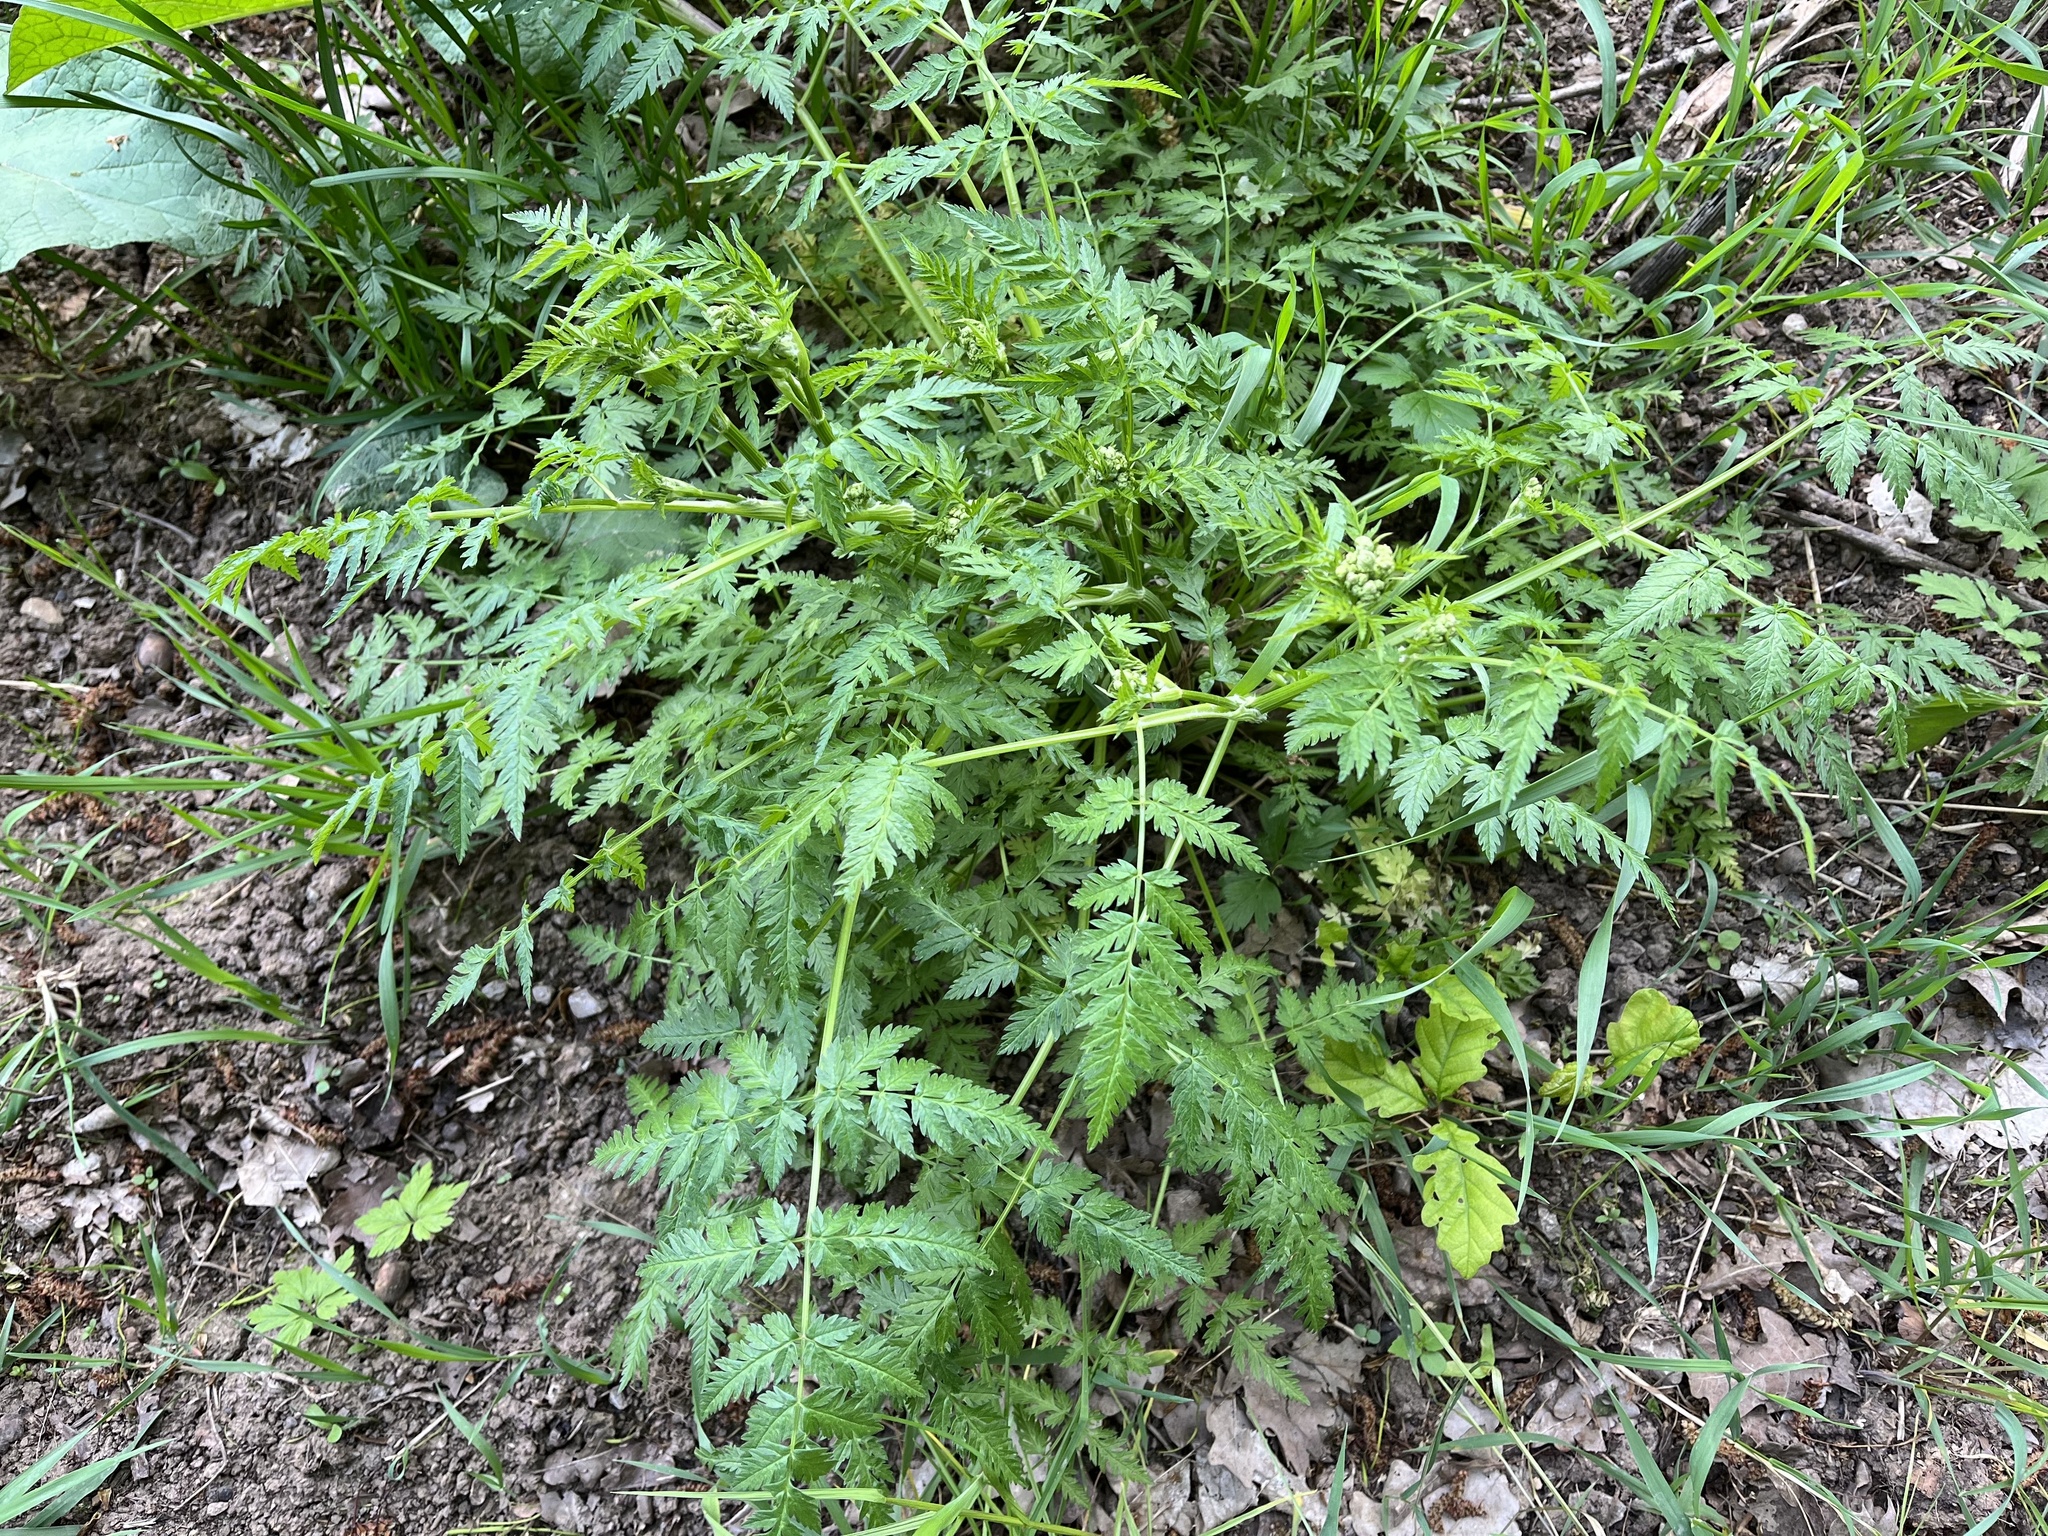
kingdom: Plantae
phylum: Tracheophyta
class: Magnoliopsida
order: Apiales
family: Apiaceae
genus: Anthriscus
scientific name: Anthriscus sylvestris
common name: Cow parsley
